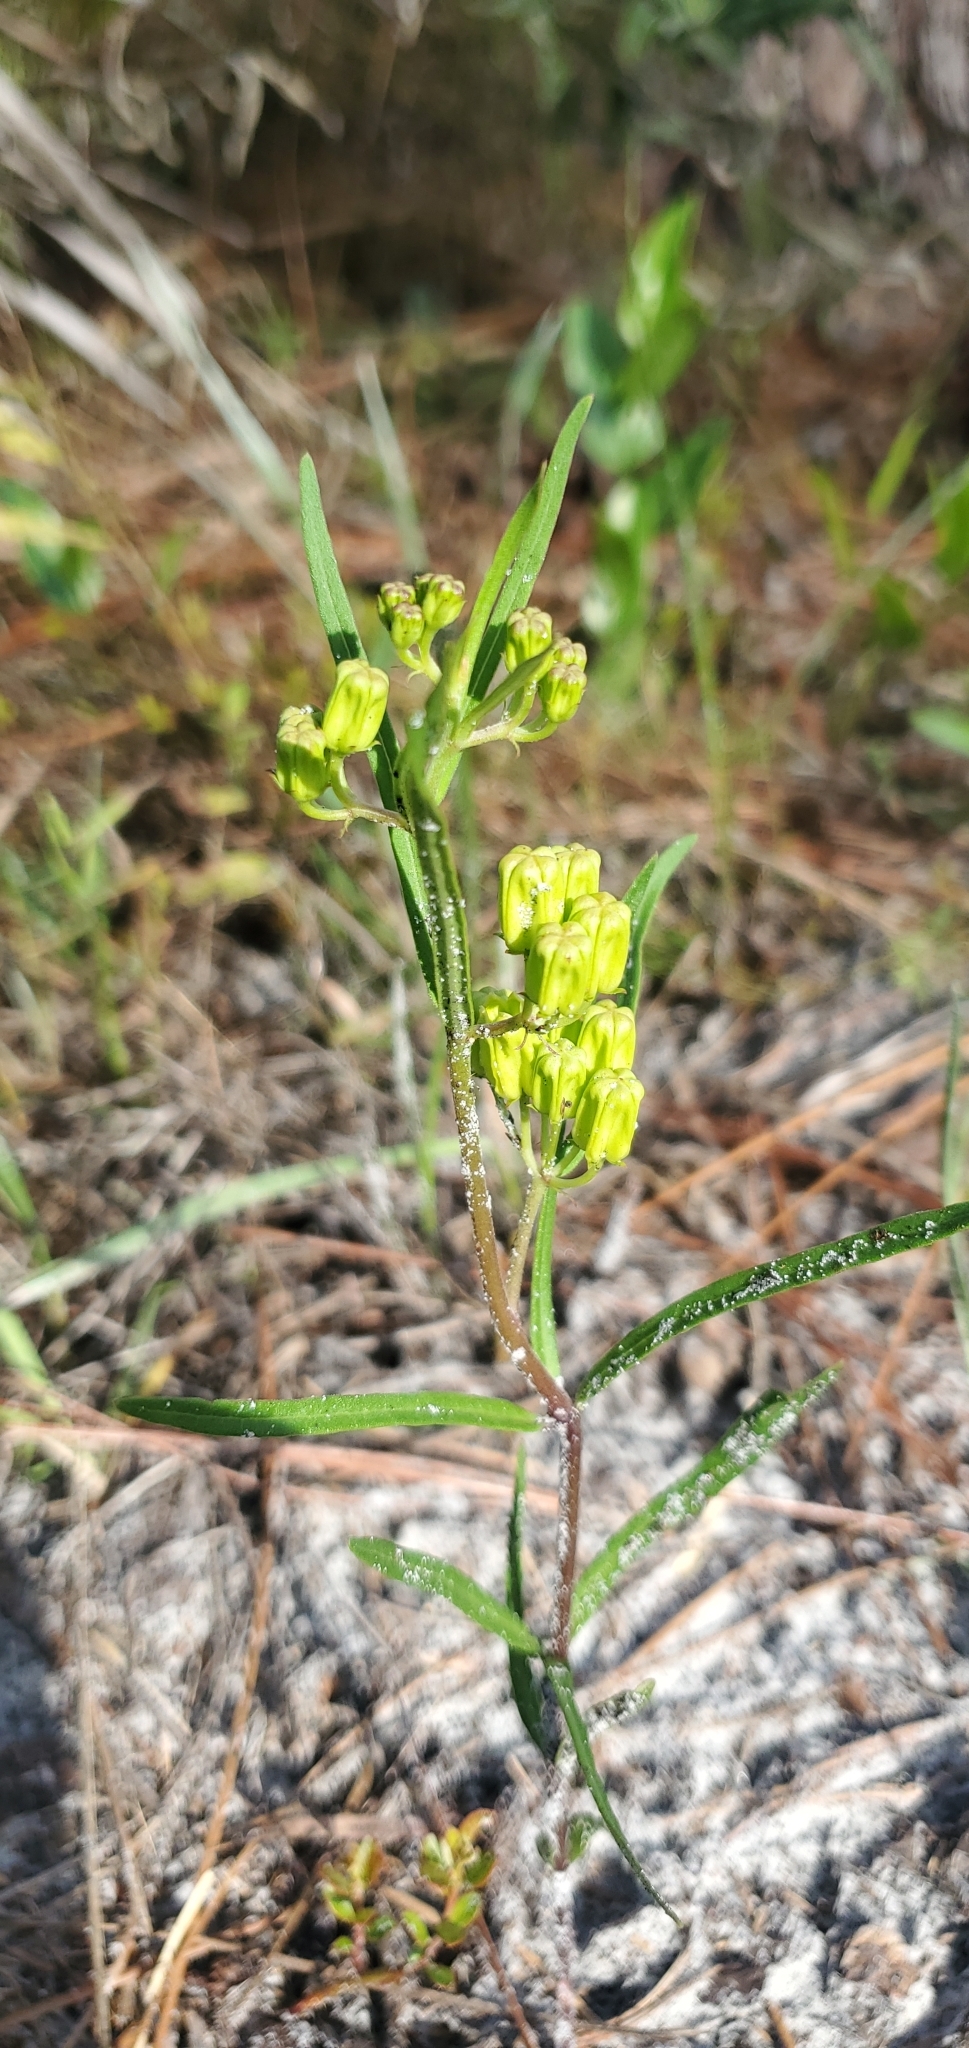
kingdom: Plantae
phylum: Tracheophyta
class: Magnoliopsida
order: Gentianales
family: Apocynaceae
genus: Asclepias
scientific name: Asclepias pedicellata
